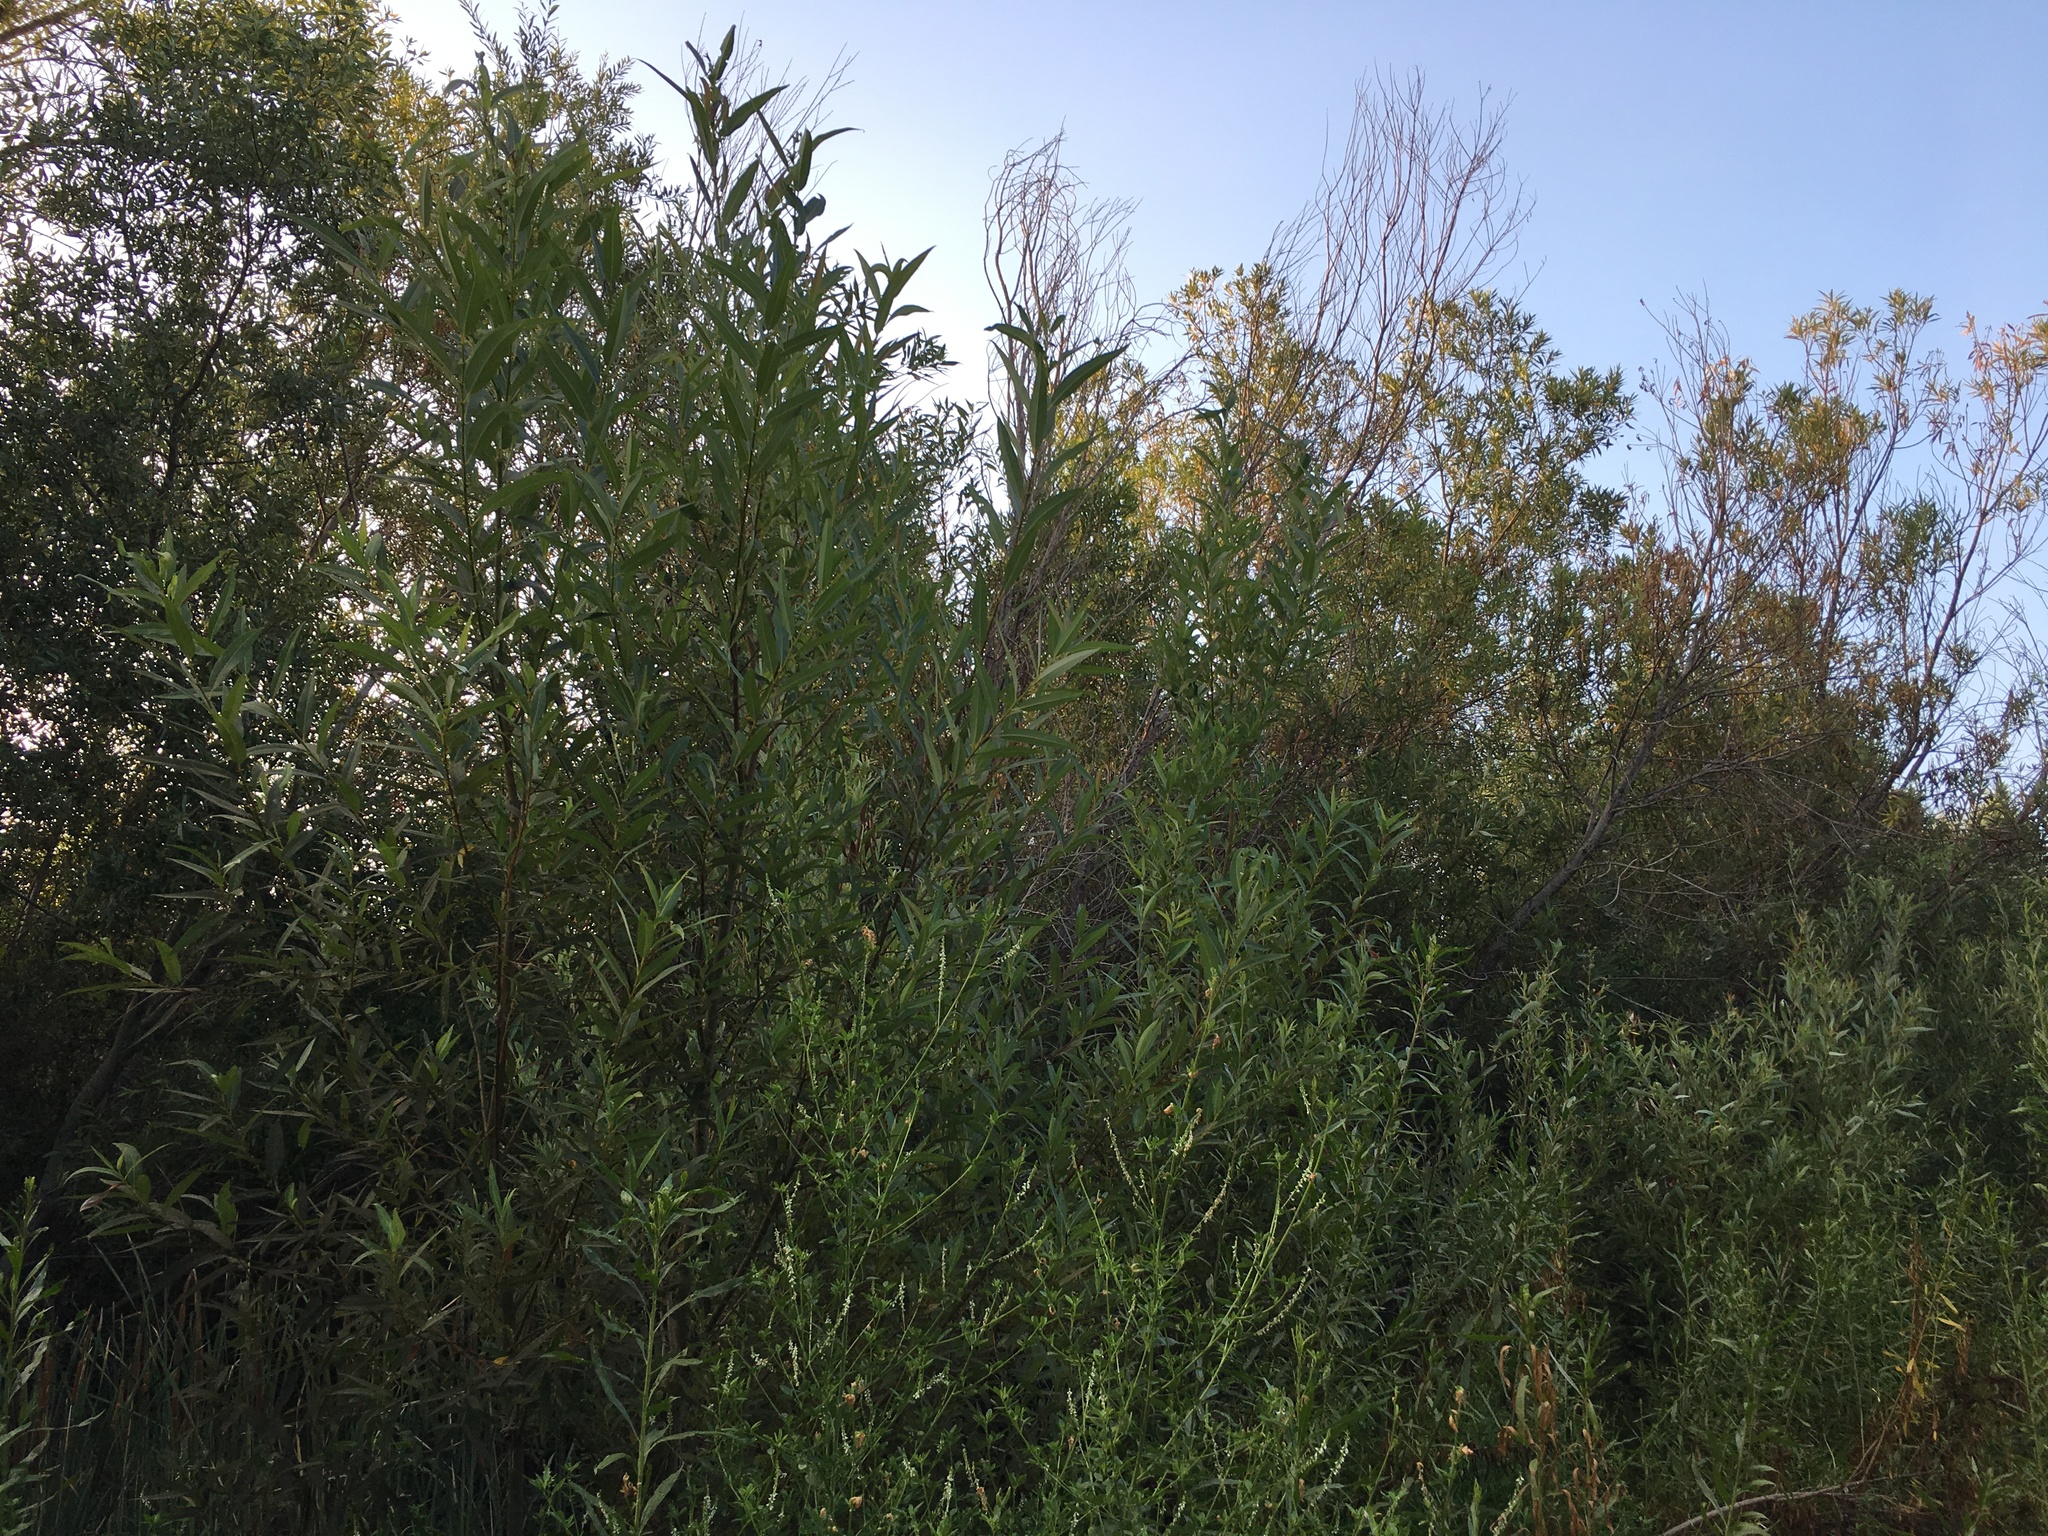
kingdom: Plantae
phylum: Tracheophyta
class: Magnoliopsida
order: Fabales
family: Fabaceae
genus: Melilotus
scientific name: Melilotus albus
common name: White melilot
